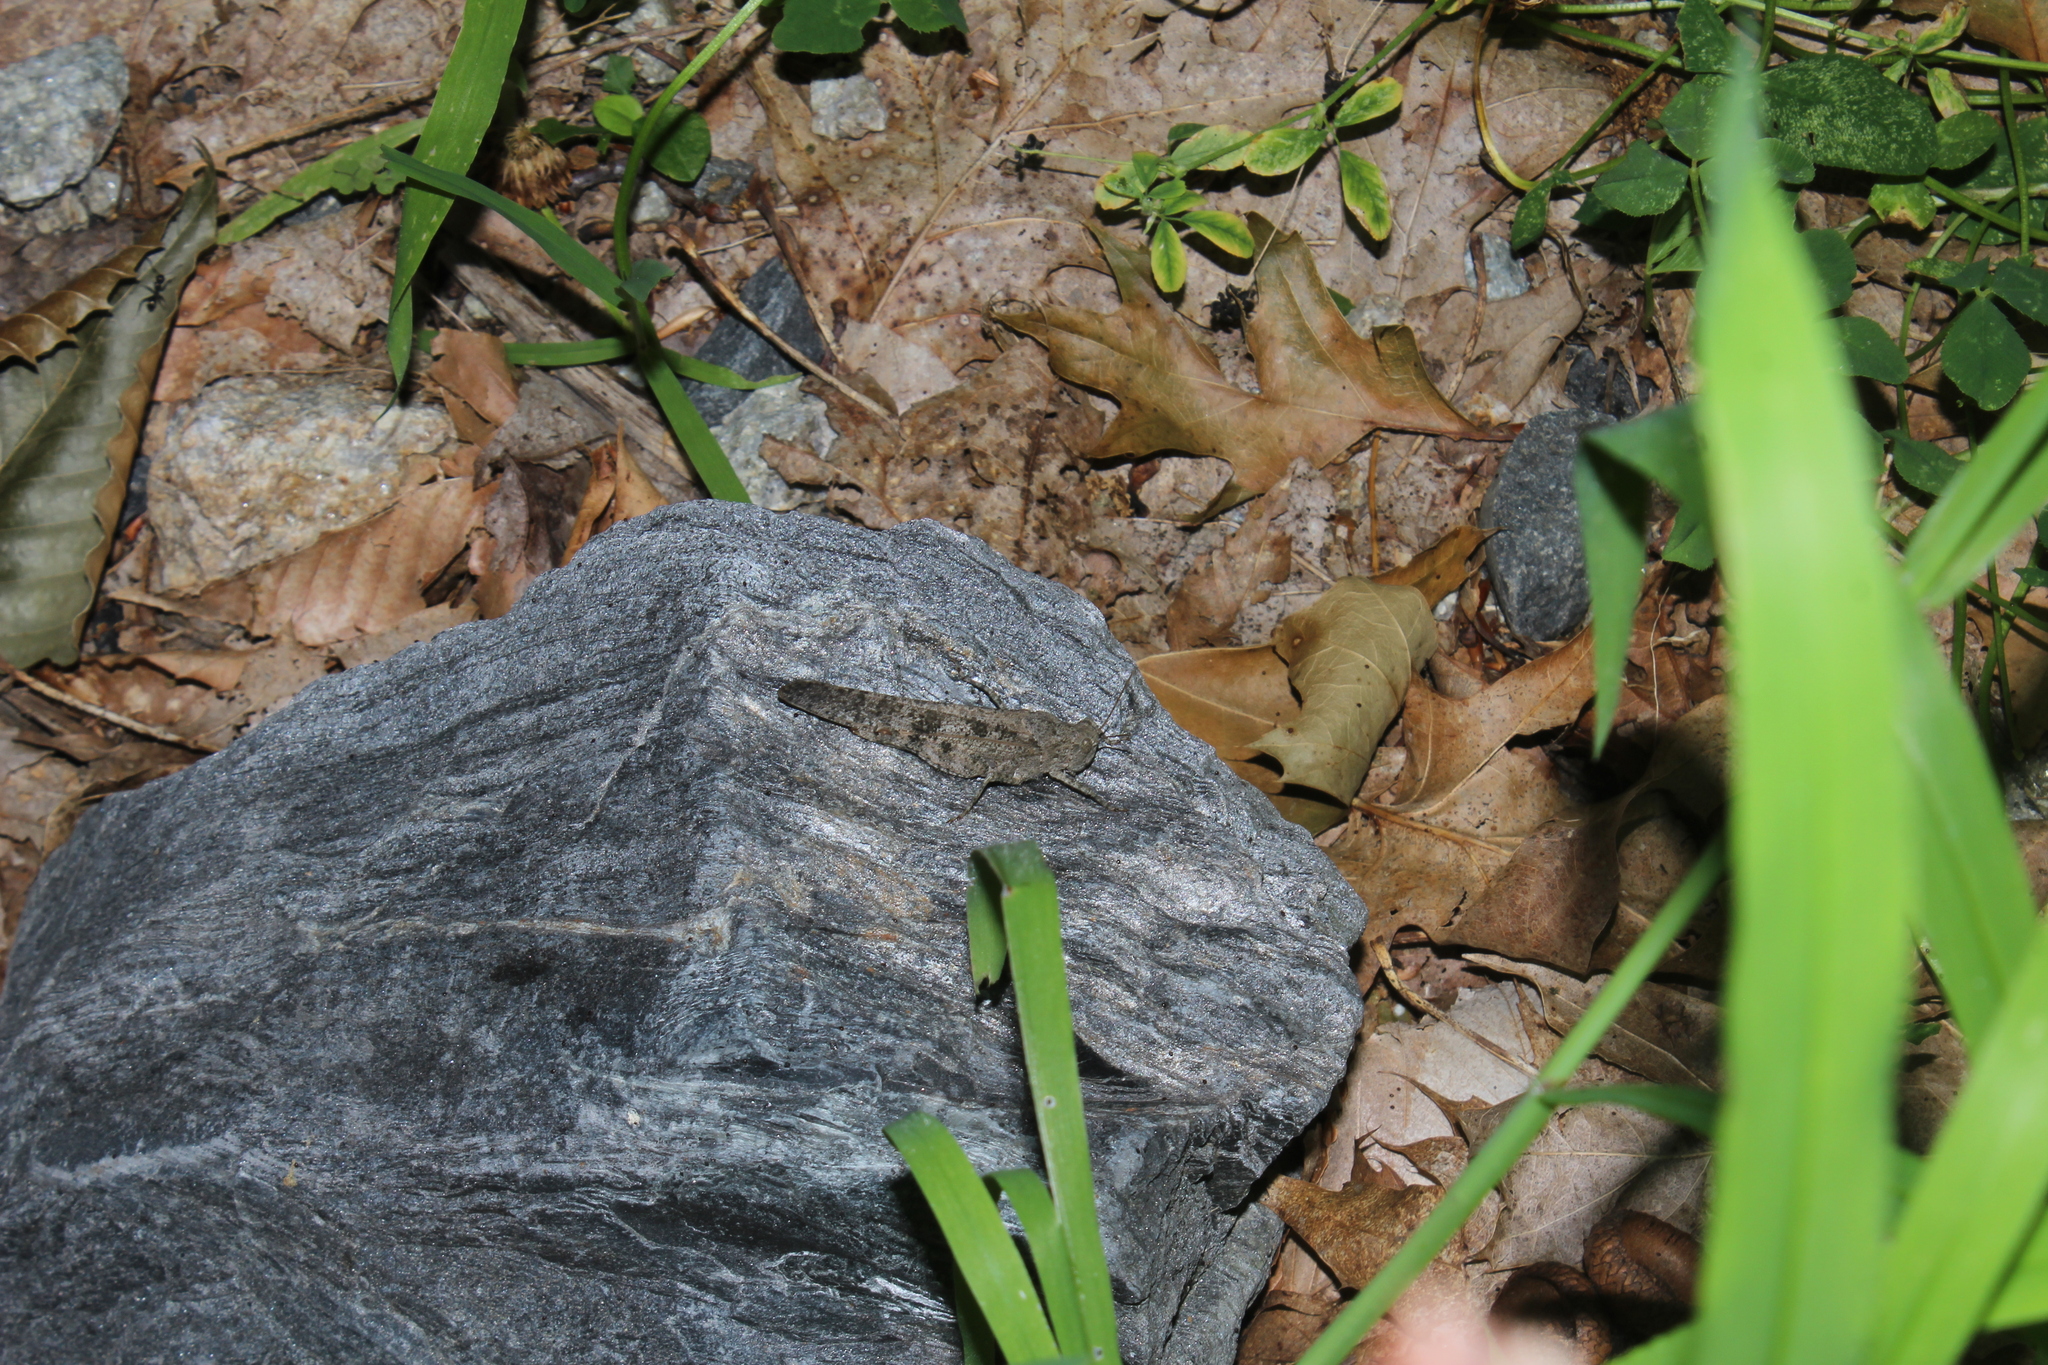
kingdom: Animalia
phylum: Arthropoda
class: Insecta
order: Orthoptera
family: Acrididae
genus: Dissosteira
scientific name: Dissosteira carolina
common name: Carolina grasshopper
